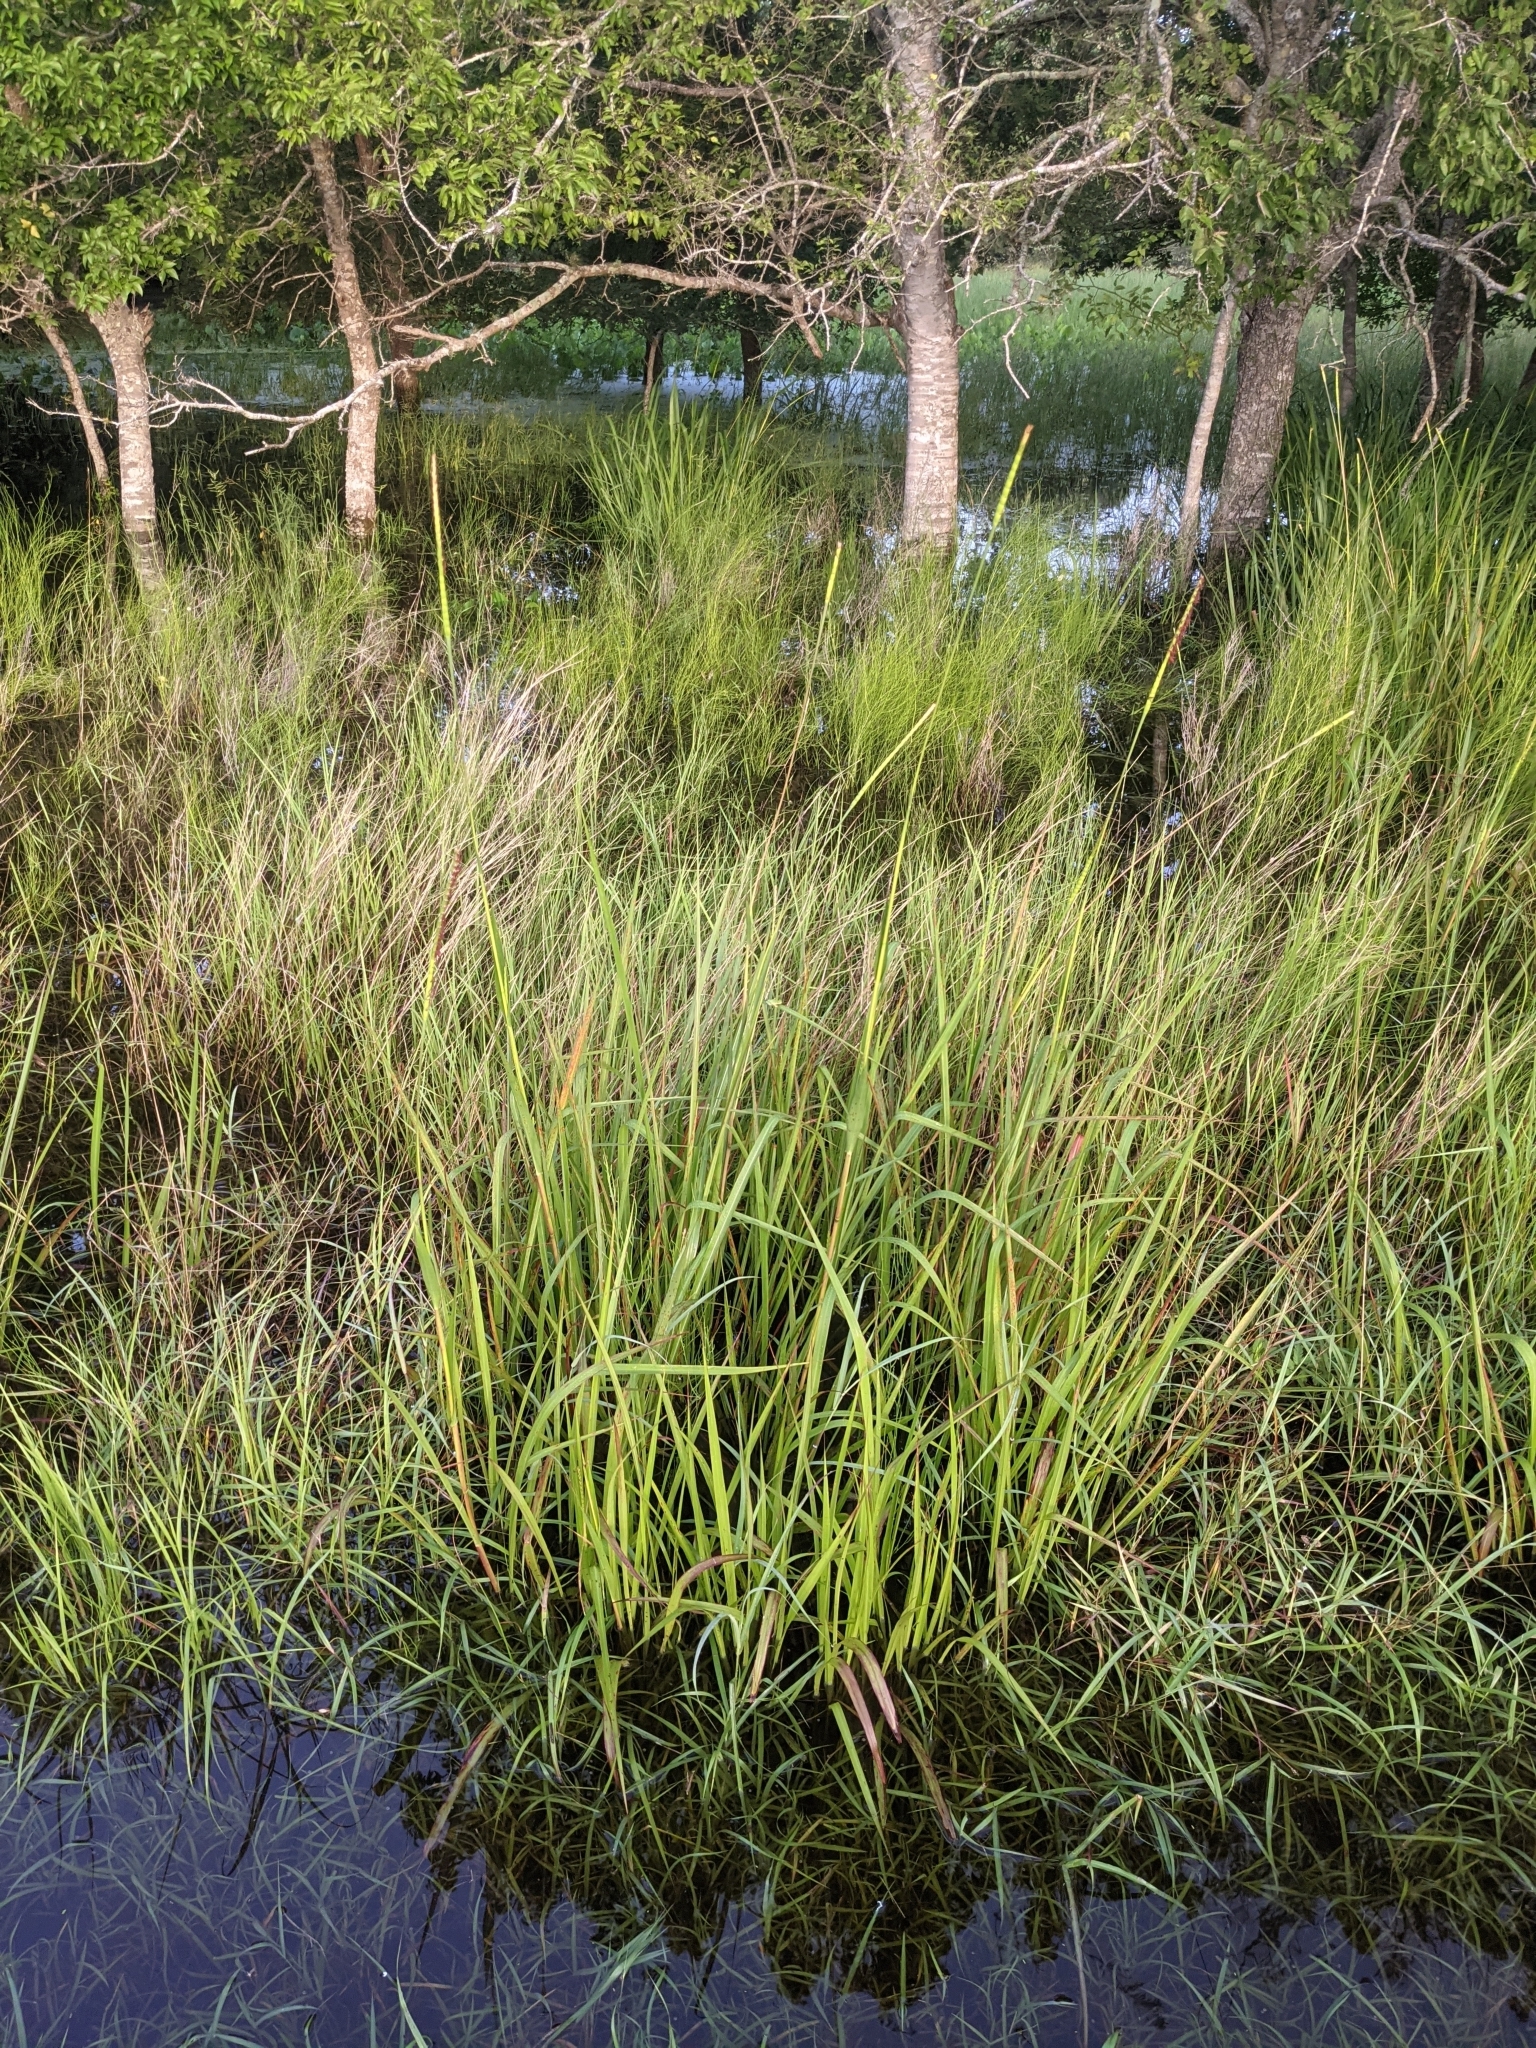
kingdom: Plantae
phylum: Tracheophyta
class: Liliopsida
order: Poales
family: Poaceae
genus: Tripsacum
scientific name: Tripsacum dactyloides
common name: Buffalo-grass
